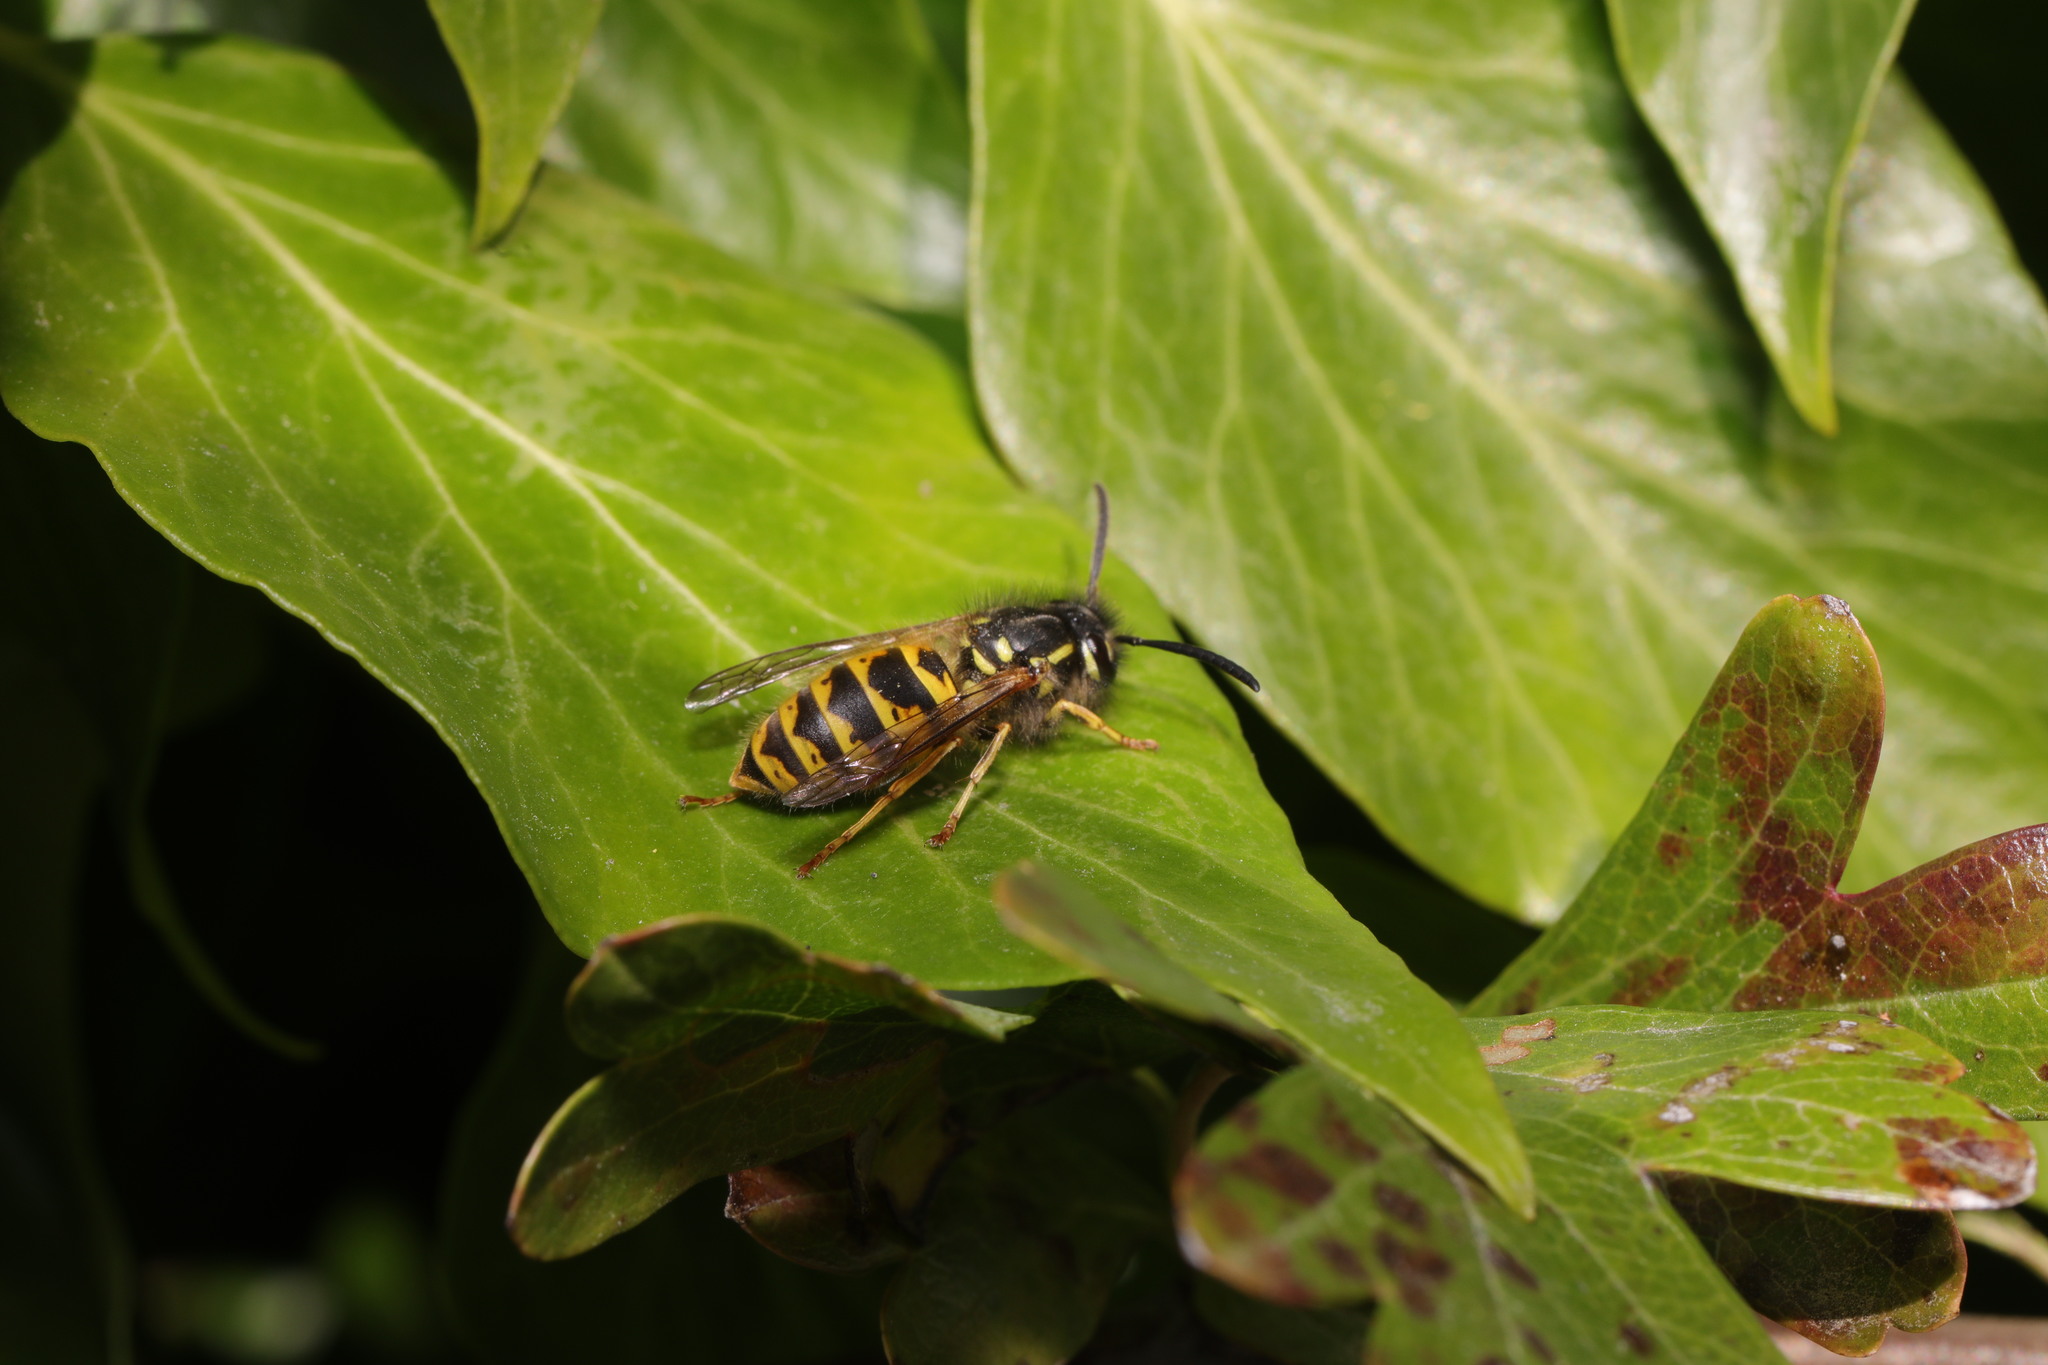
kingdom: Animalia
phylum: Arthropoda
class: Insecta
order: Hymenoptera
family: Vespidae
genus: Vespula
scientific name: Vespula vulgaris
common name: Common wasp
